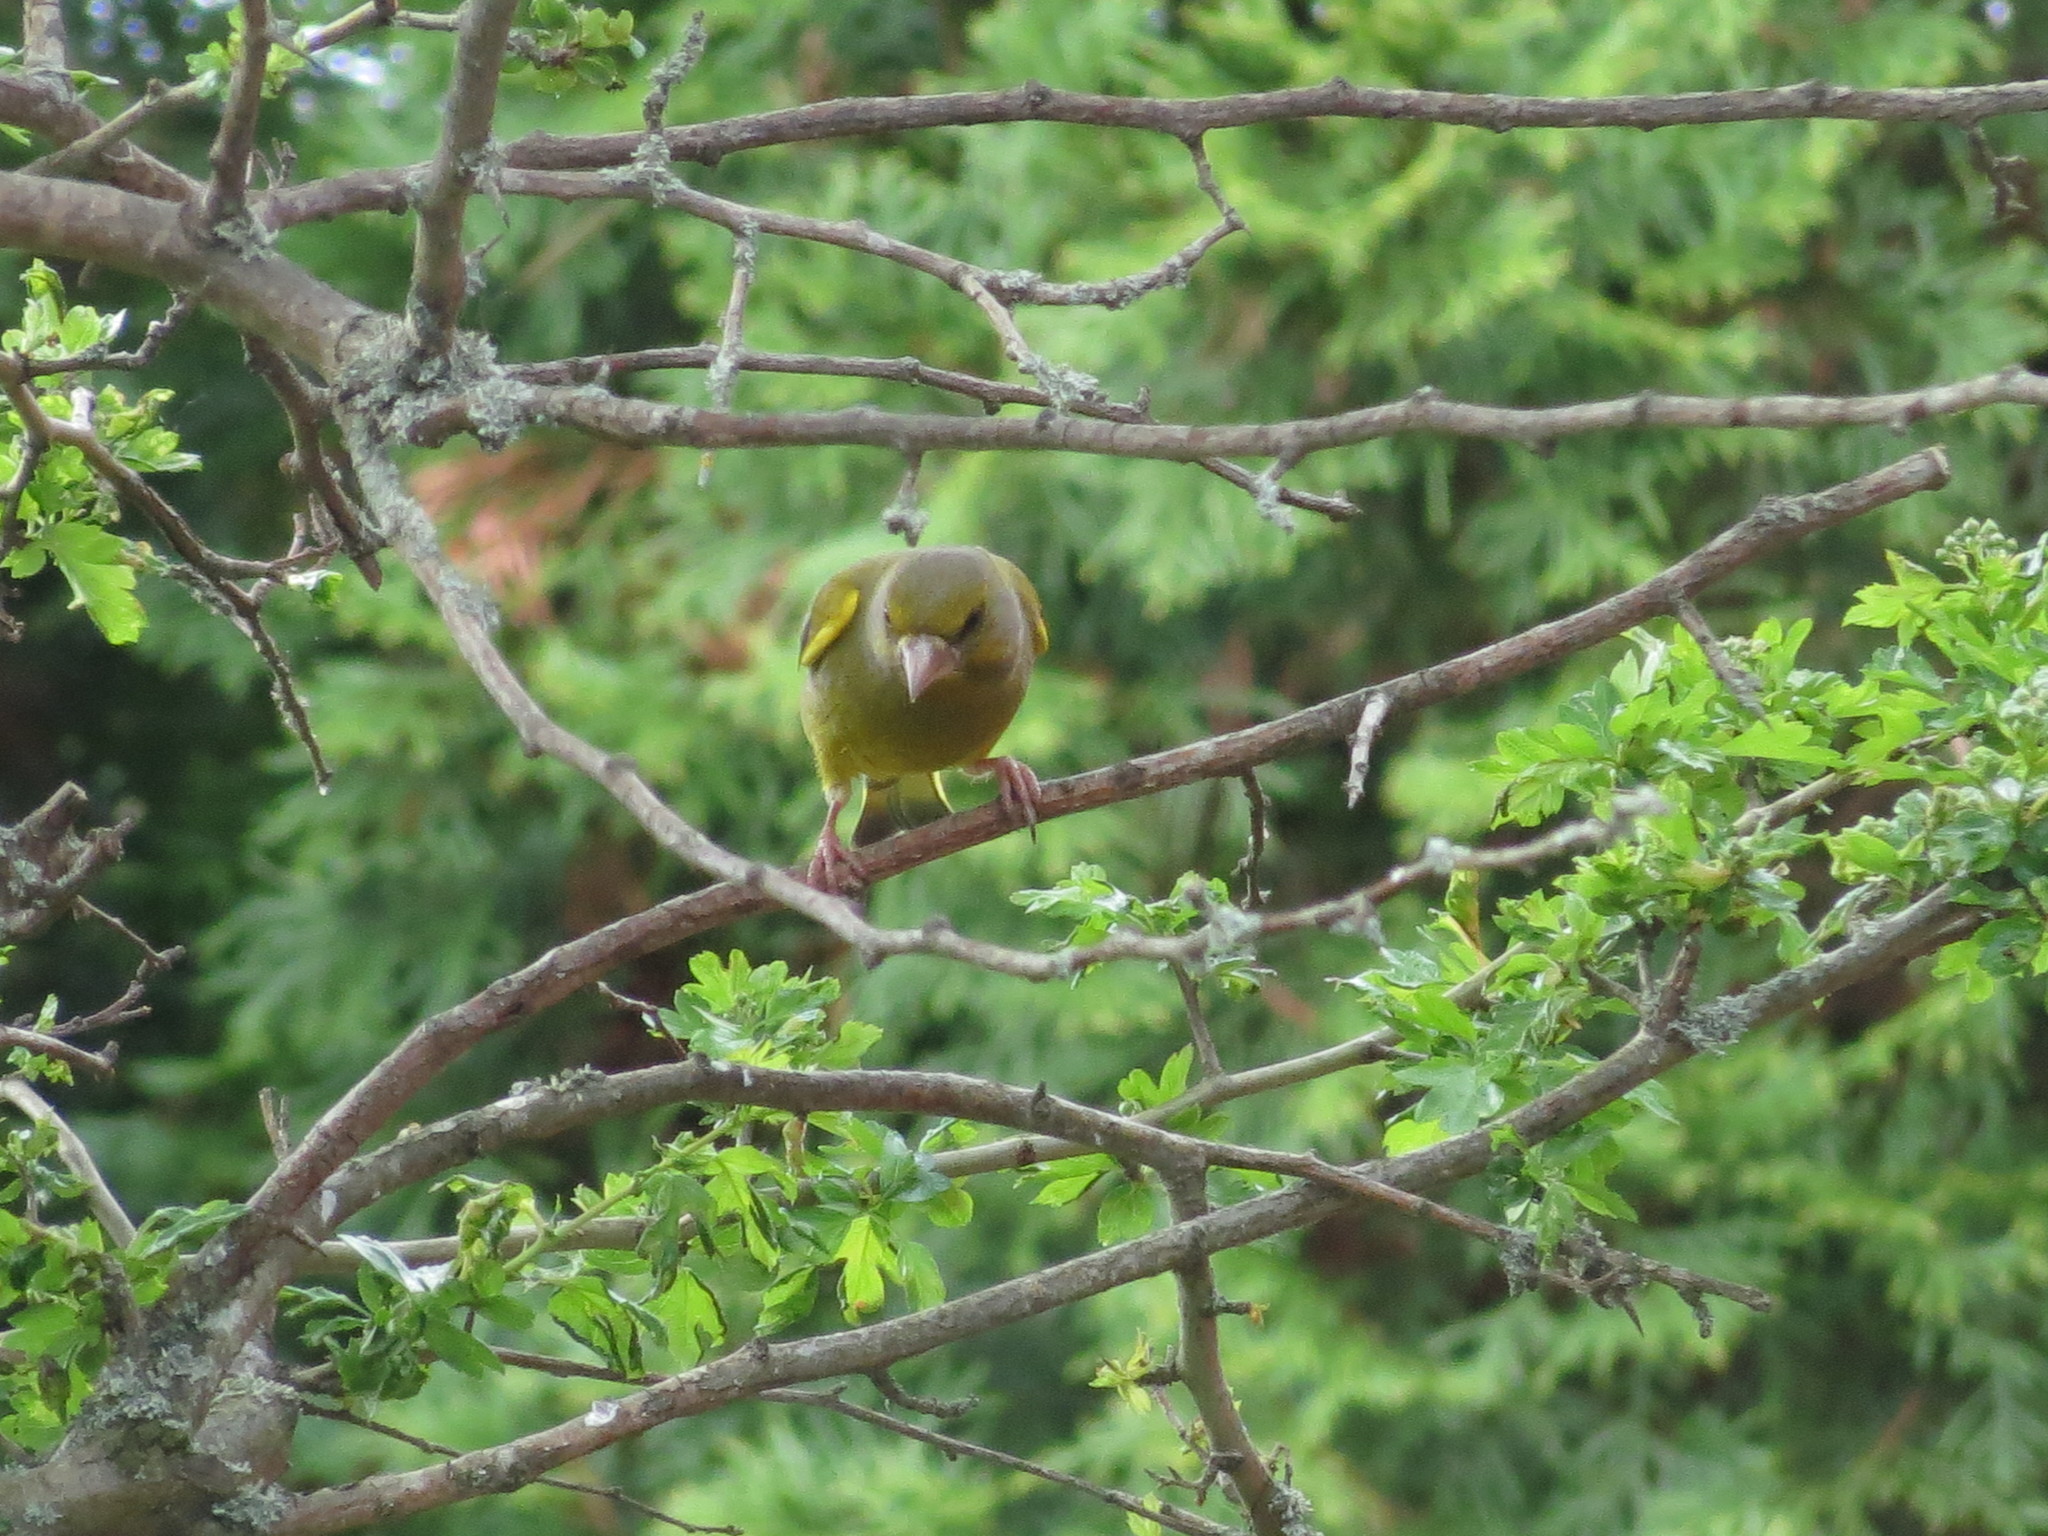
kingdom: Plantae
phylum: Tracheophyta
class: Liliopsida
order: Poales
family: Poaceae
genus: Chloris
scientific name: Chloris chloris
